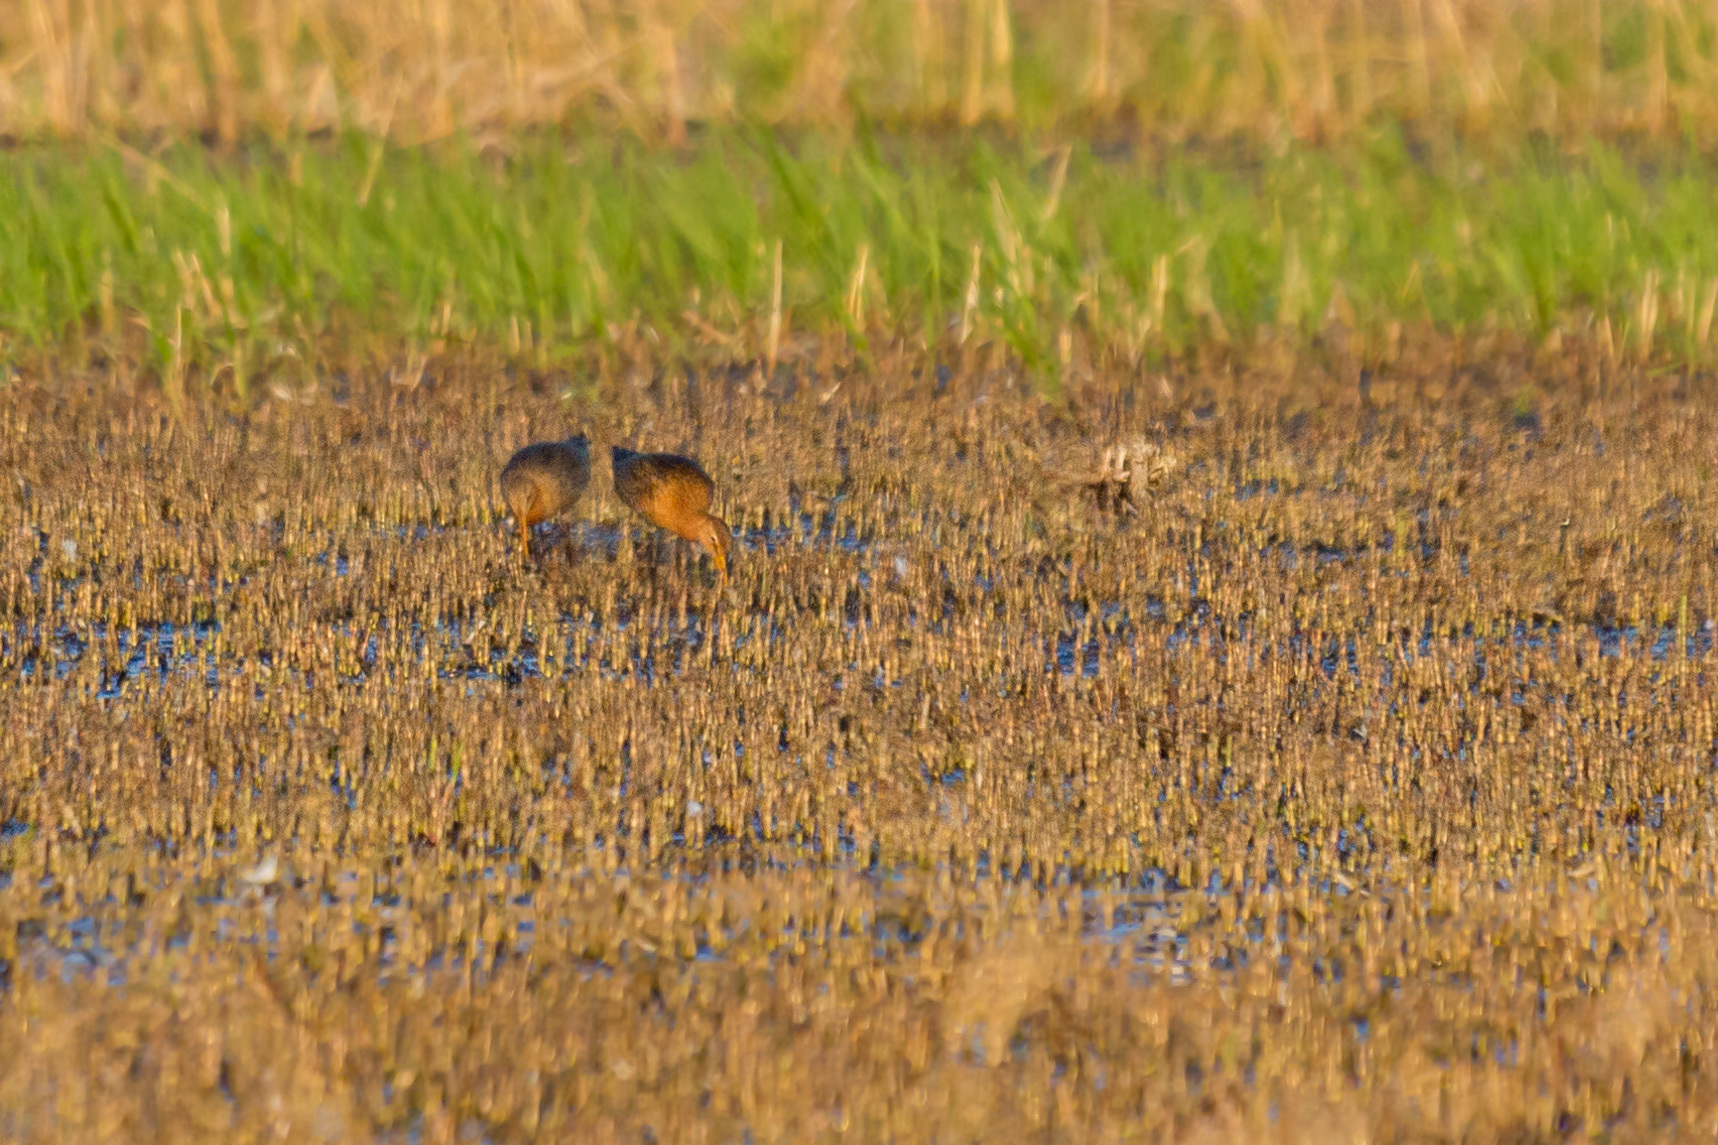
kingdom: Animalia
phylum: Chordata
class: Aves
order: Charadriiformes
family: Scolopacidae
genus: Limosa
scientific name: Limosa limosa
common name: Black-tailed godwit
